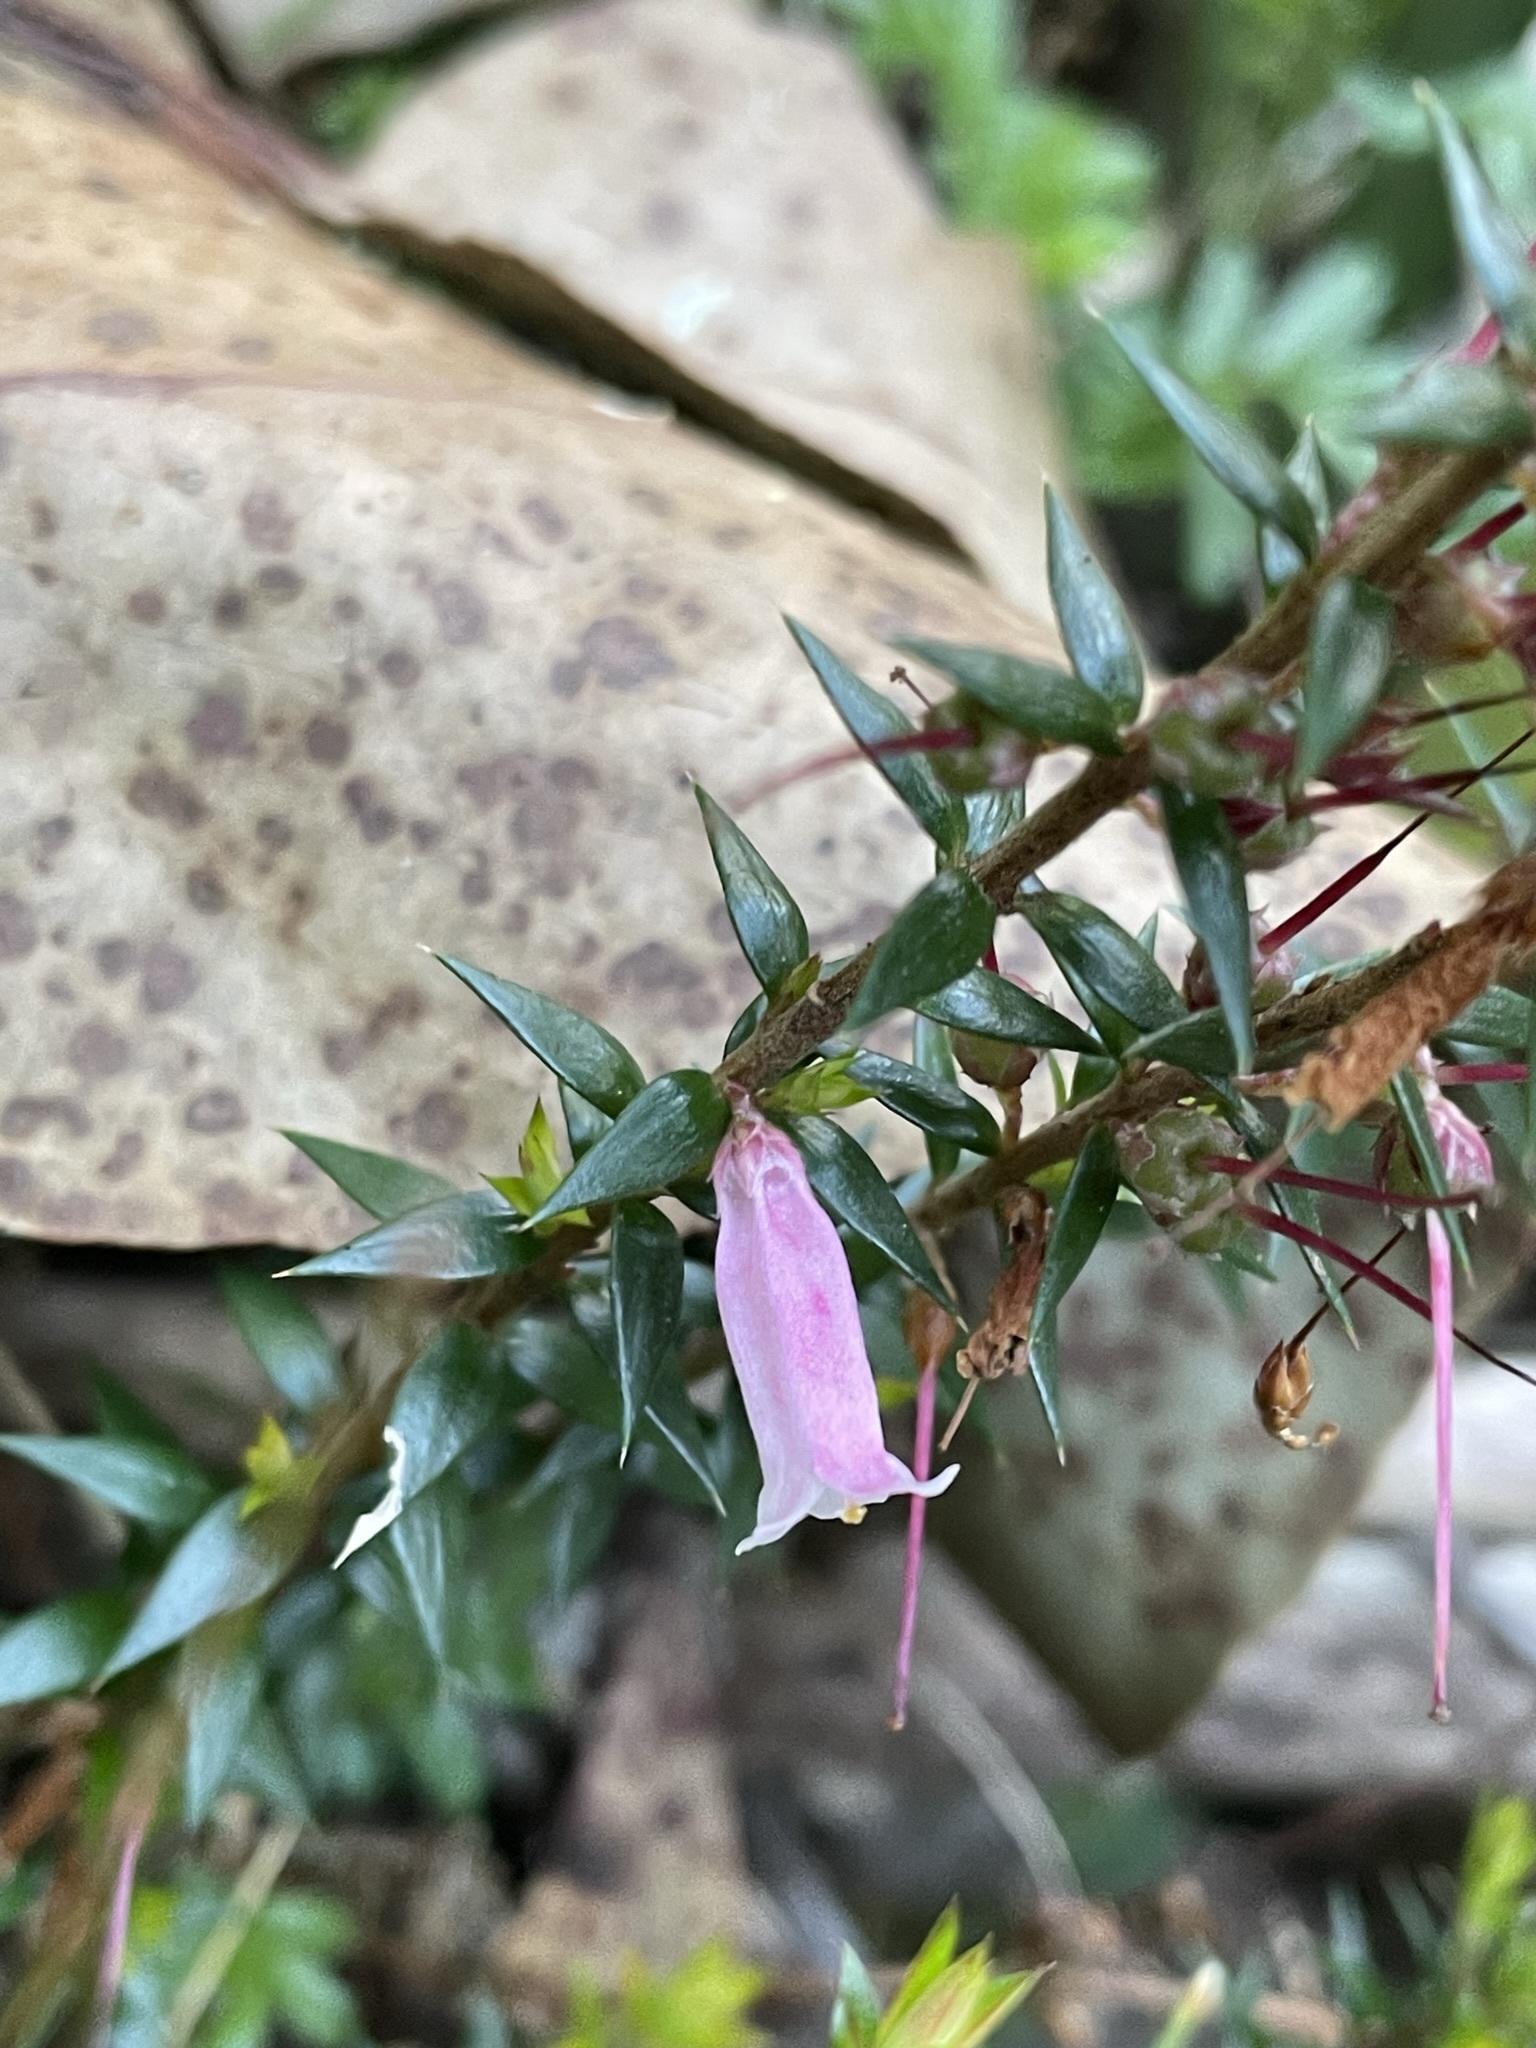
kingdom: Plantae
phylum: Tracheophyta
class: Magnoliopsida
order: Ericales
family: Ericaceae
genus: Epacris
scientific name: Epacris impressa
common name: Common-heath
